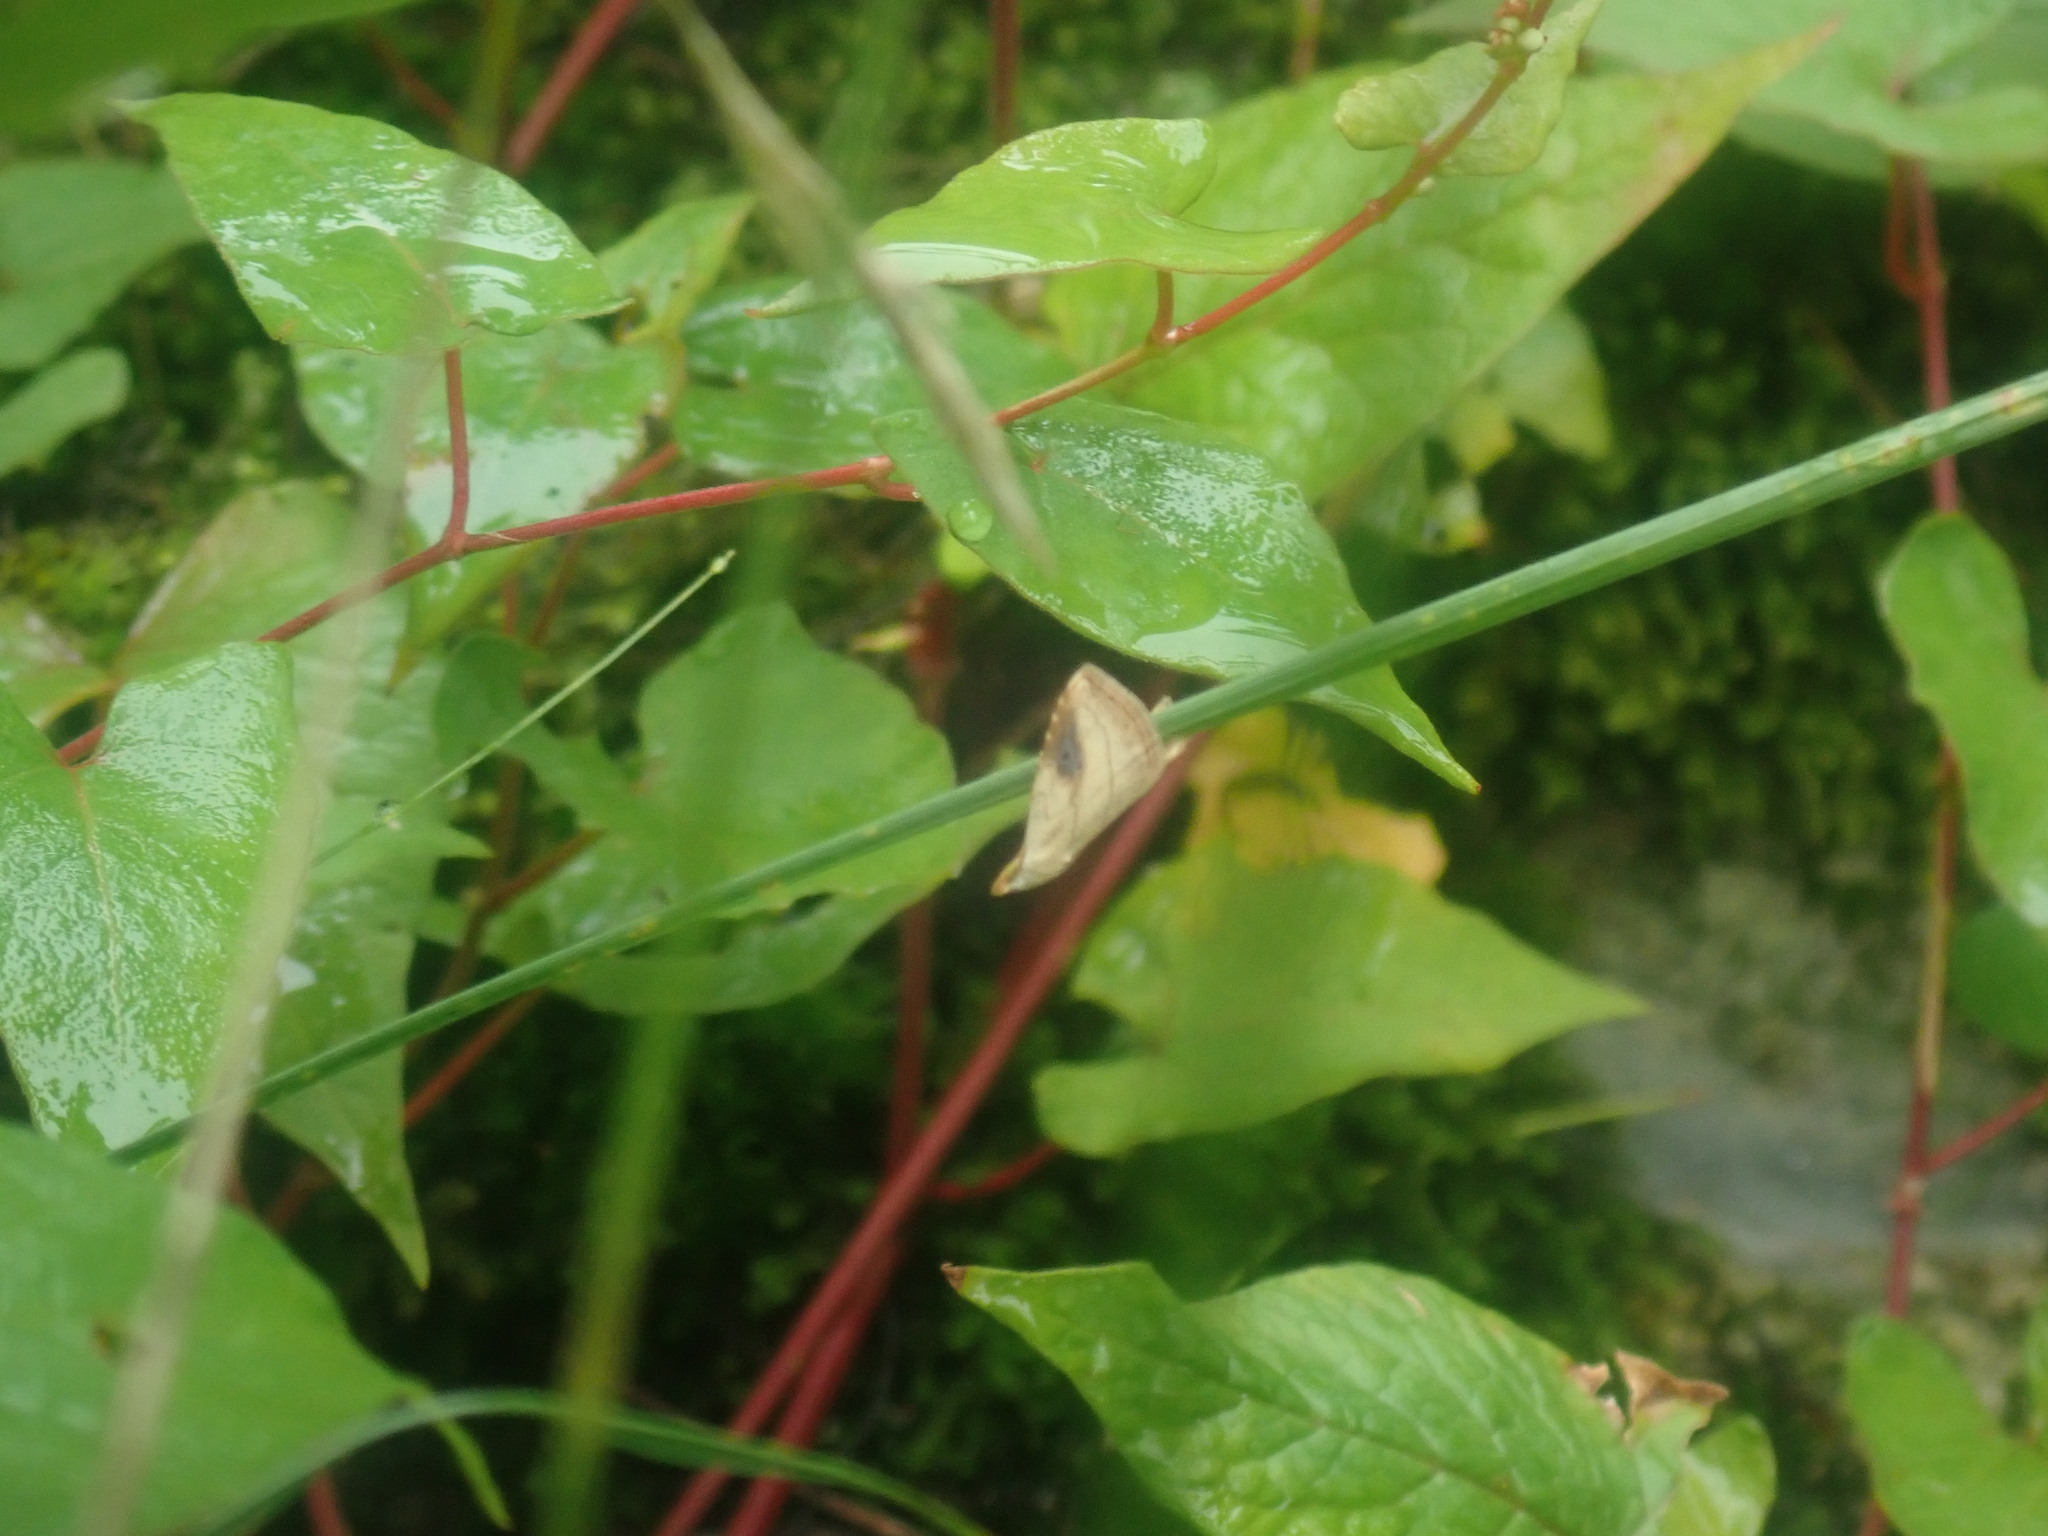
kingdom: Animalia
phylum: Arthropoda
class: Insecta
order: Lepidoptera
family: Erebidae
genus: Rivula
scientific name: Rivula propinqualis
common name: Spotted grass moth
